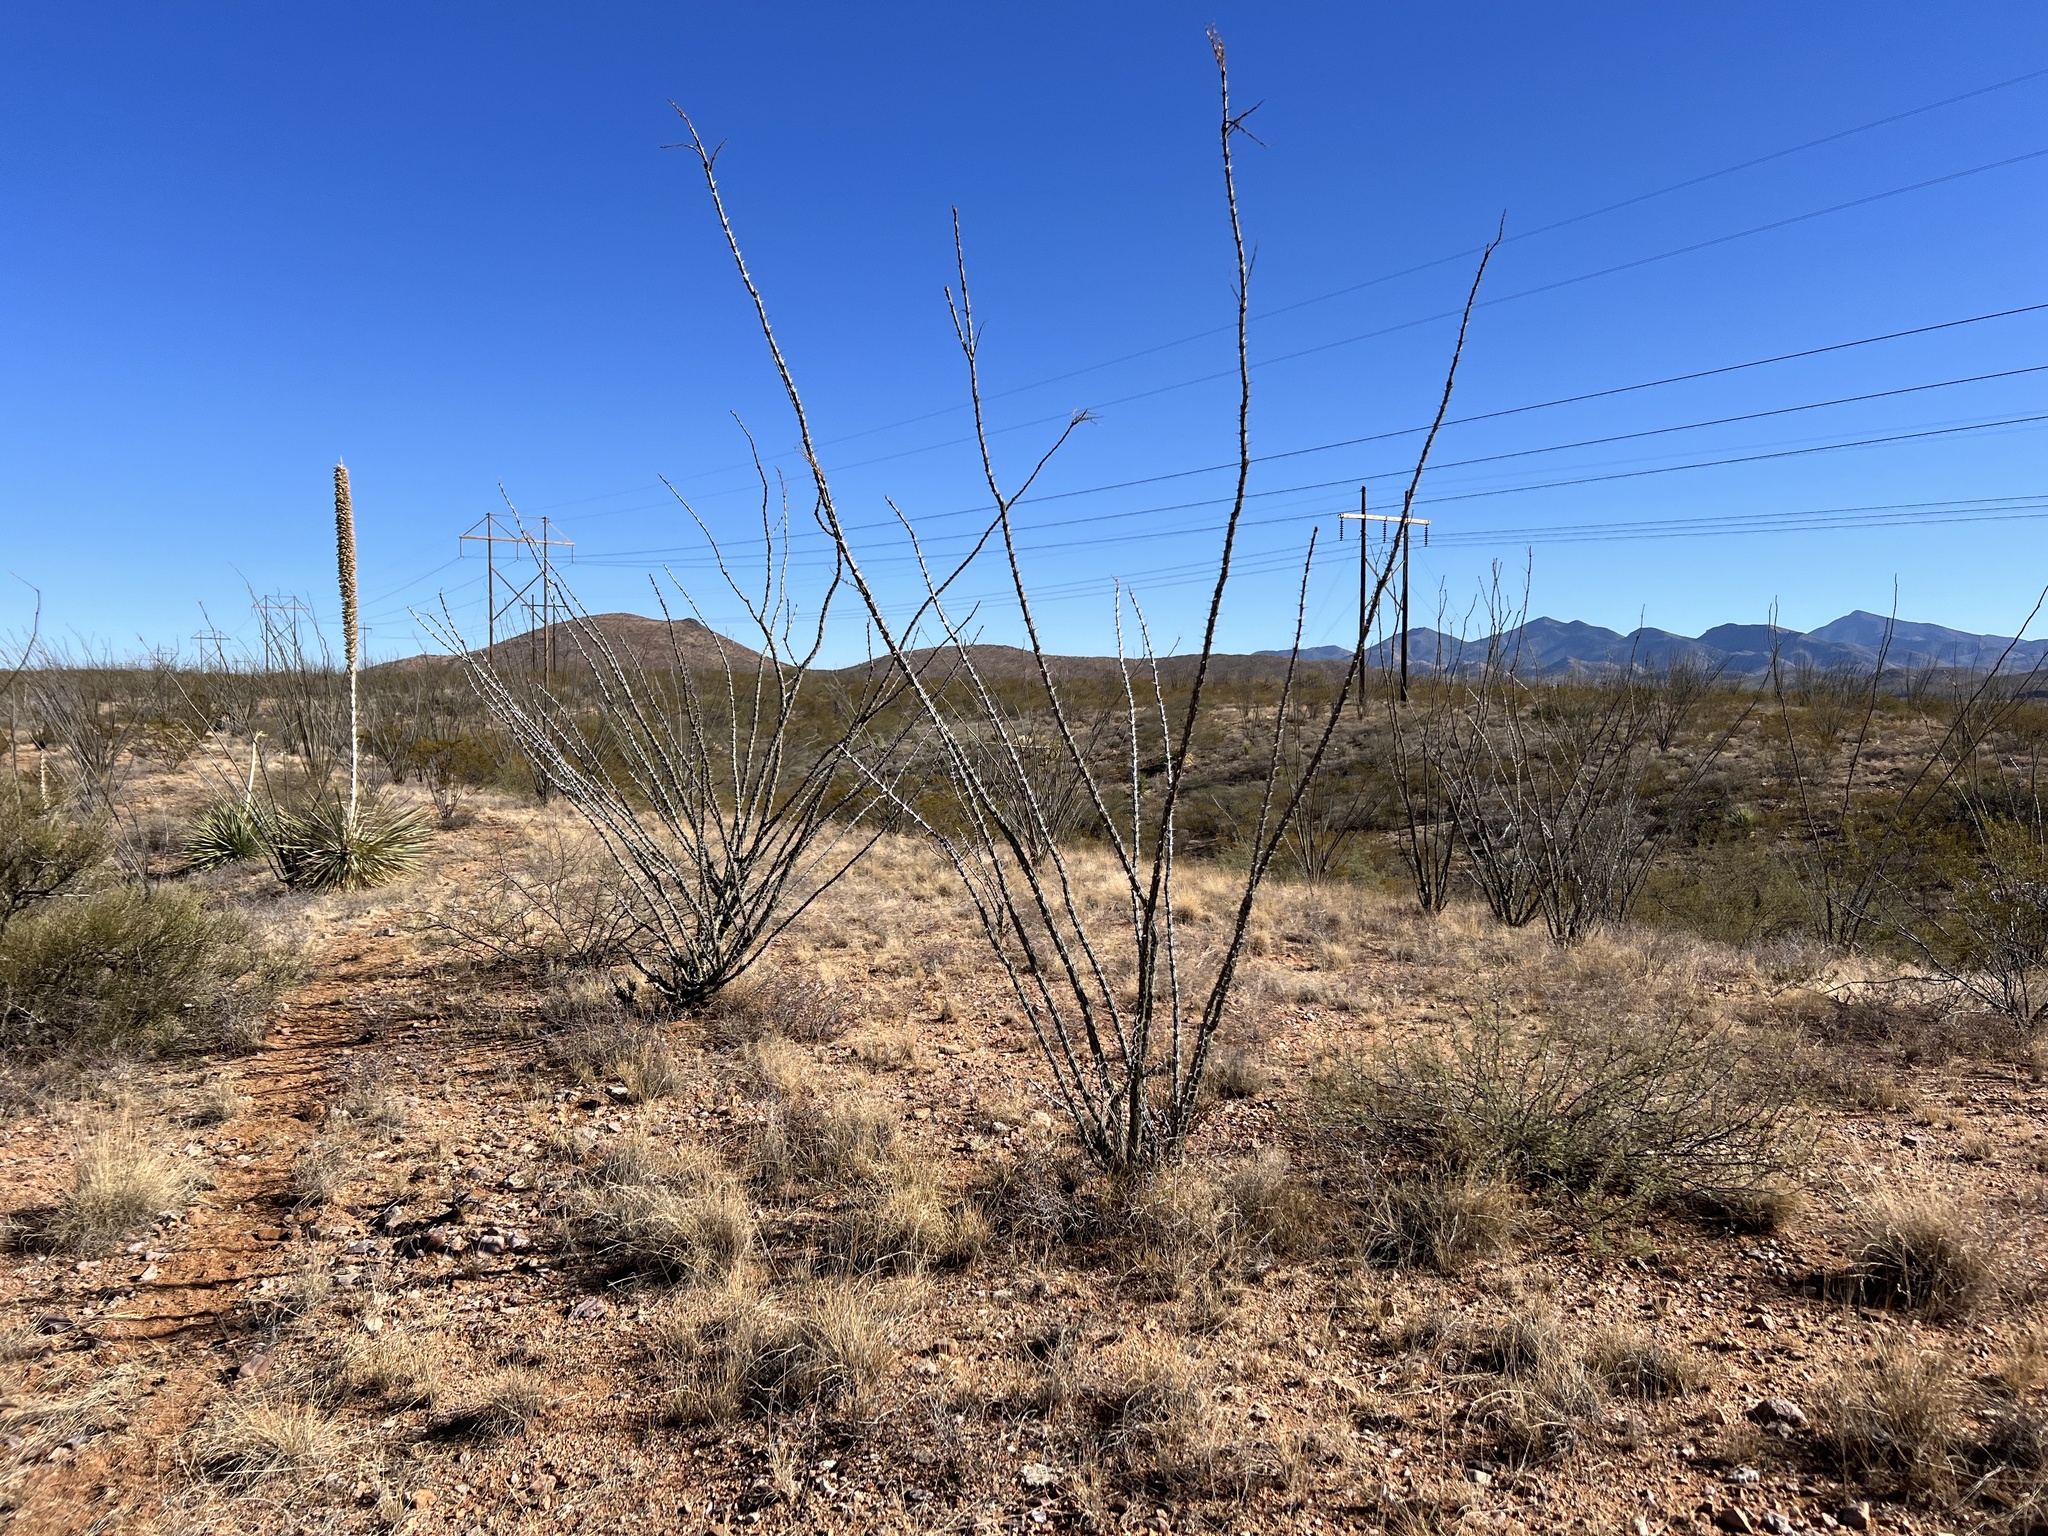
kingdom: Plantae
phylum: Tracheophyta
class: Magnoliopsida
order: Ericales
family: Fouquieriaceae
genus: Fouquieria
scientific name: Fouquieria splendens
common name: Vine-cactus
